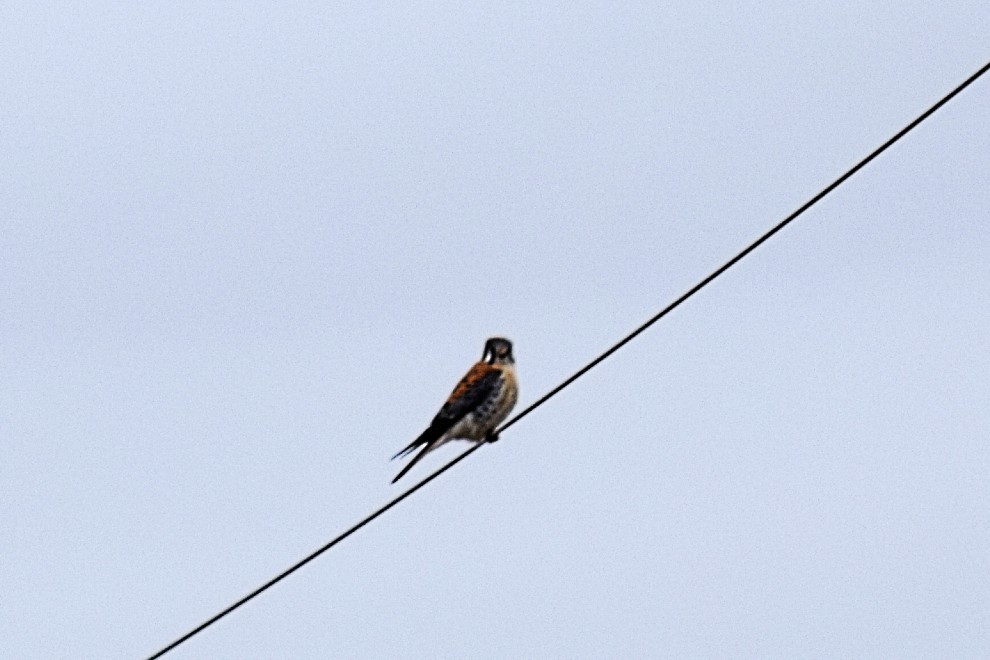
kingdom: Animalia
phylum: Chordata
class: Aves
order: Falconiformes
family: Falconidae
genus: Falco
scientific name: Falco sparverius
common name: American kestrel
